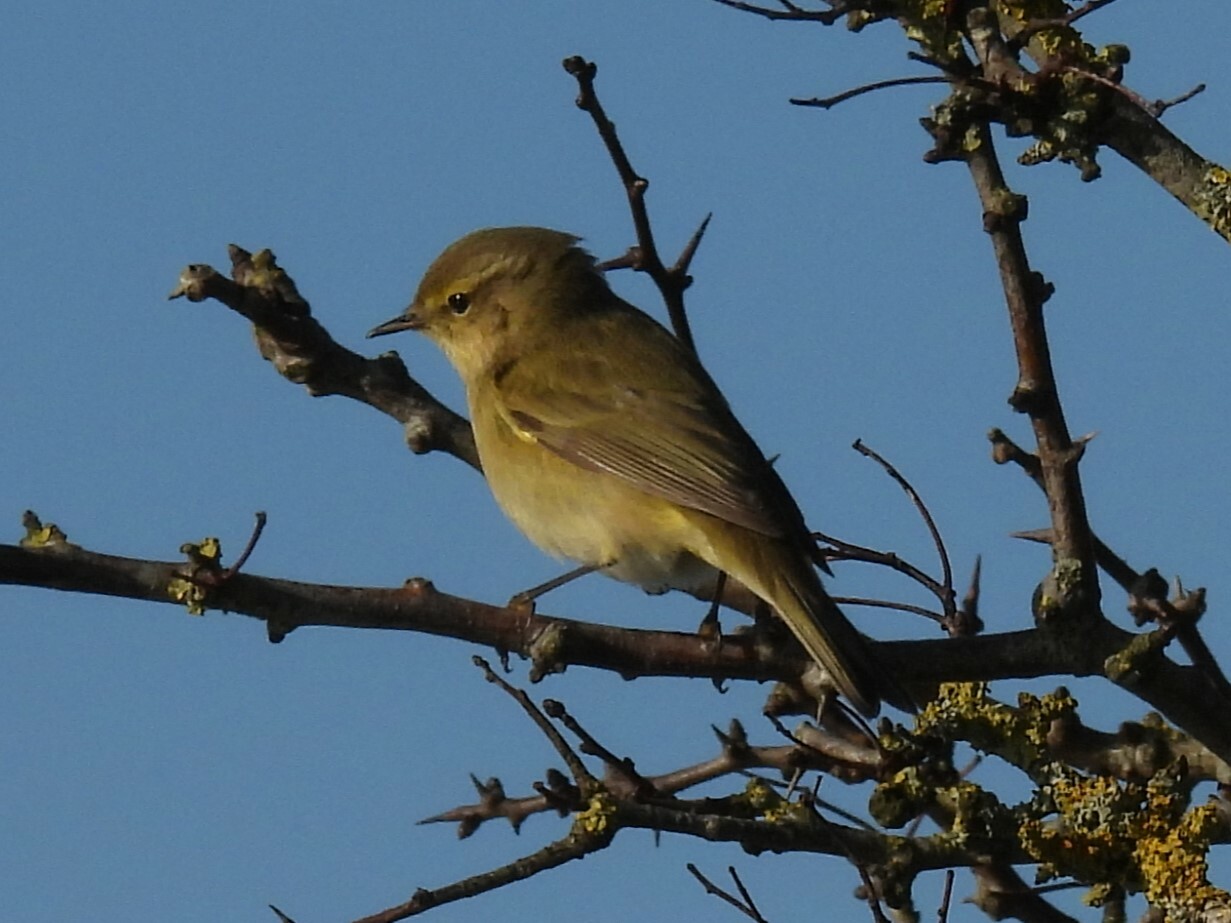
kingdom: Animalia
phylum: Chordata
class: Aves
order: Passeriformes
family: Phylloscopidae
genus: Phylloscopus
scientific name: Phylloscopus collybita
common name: Common chiffchaff
